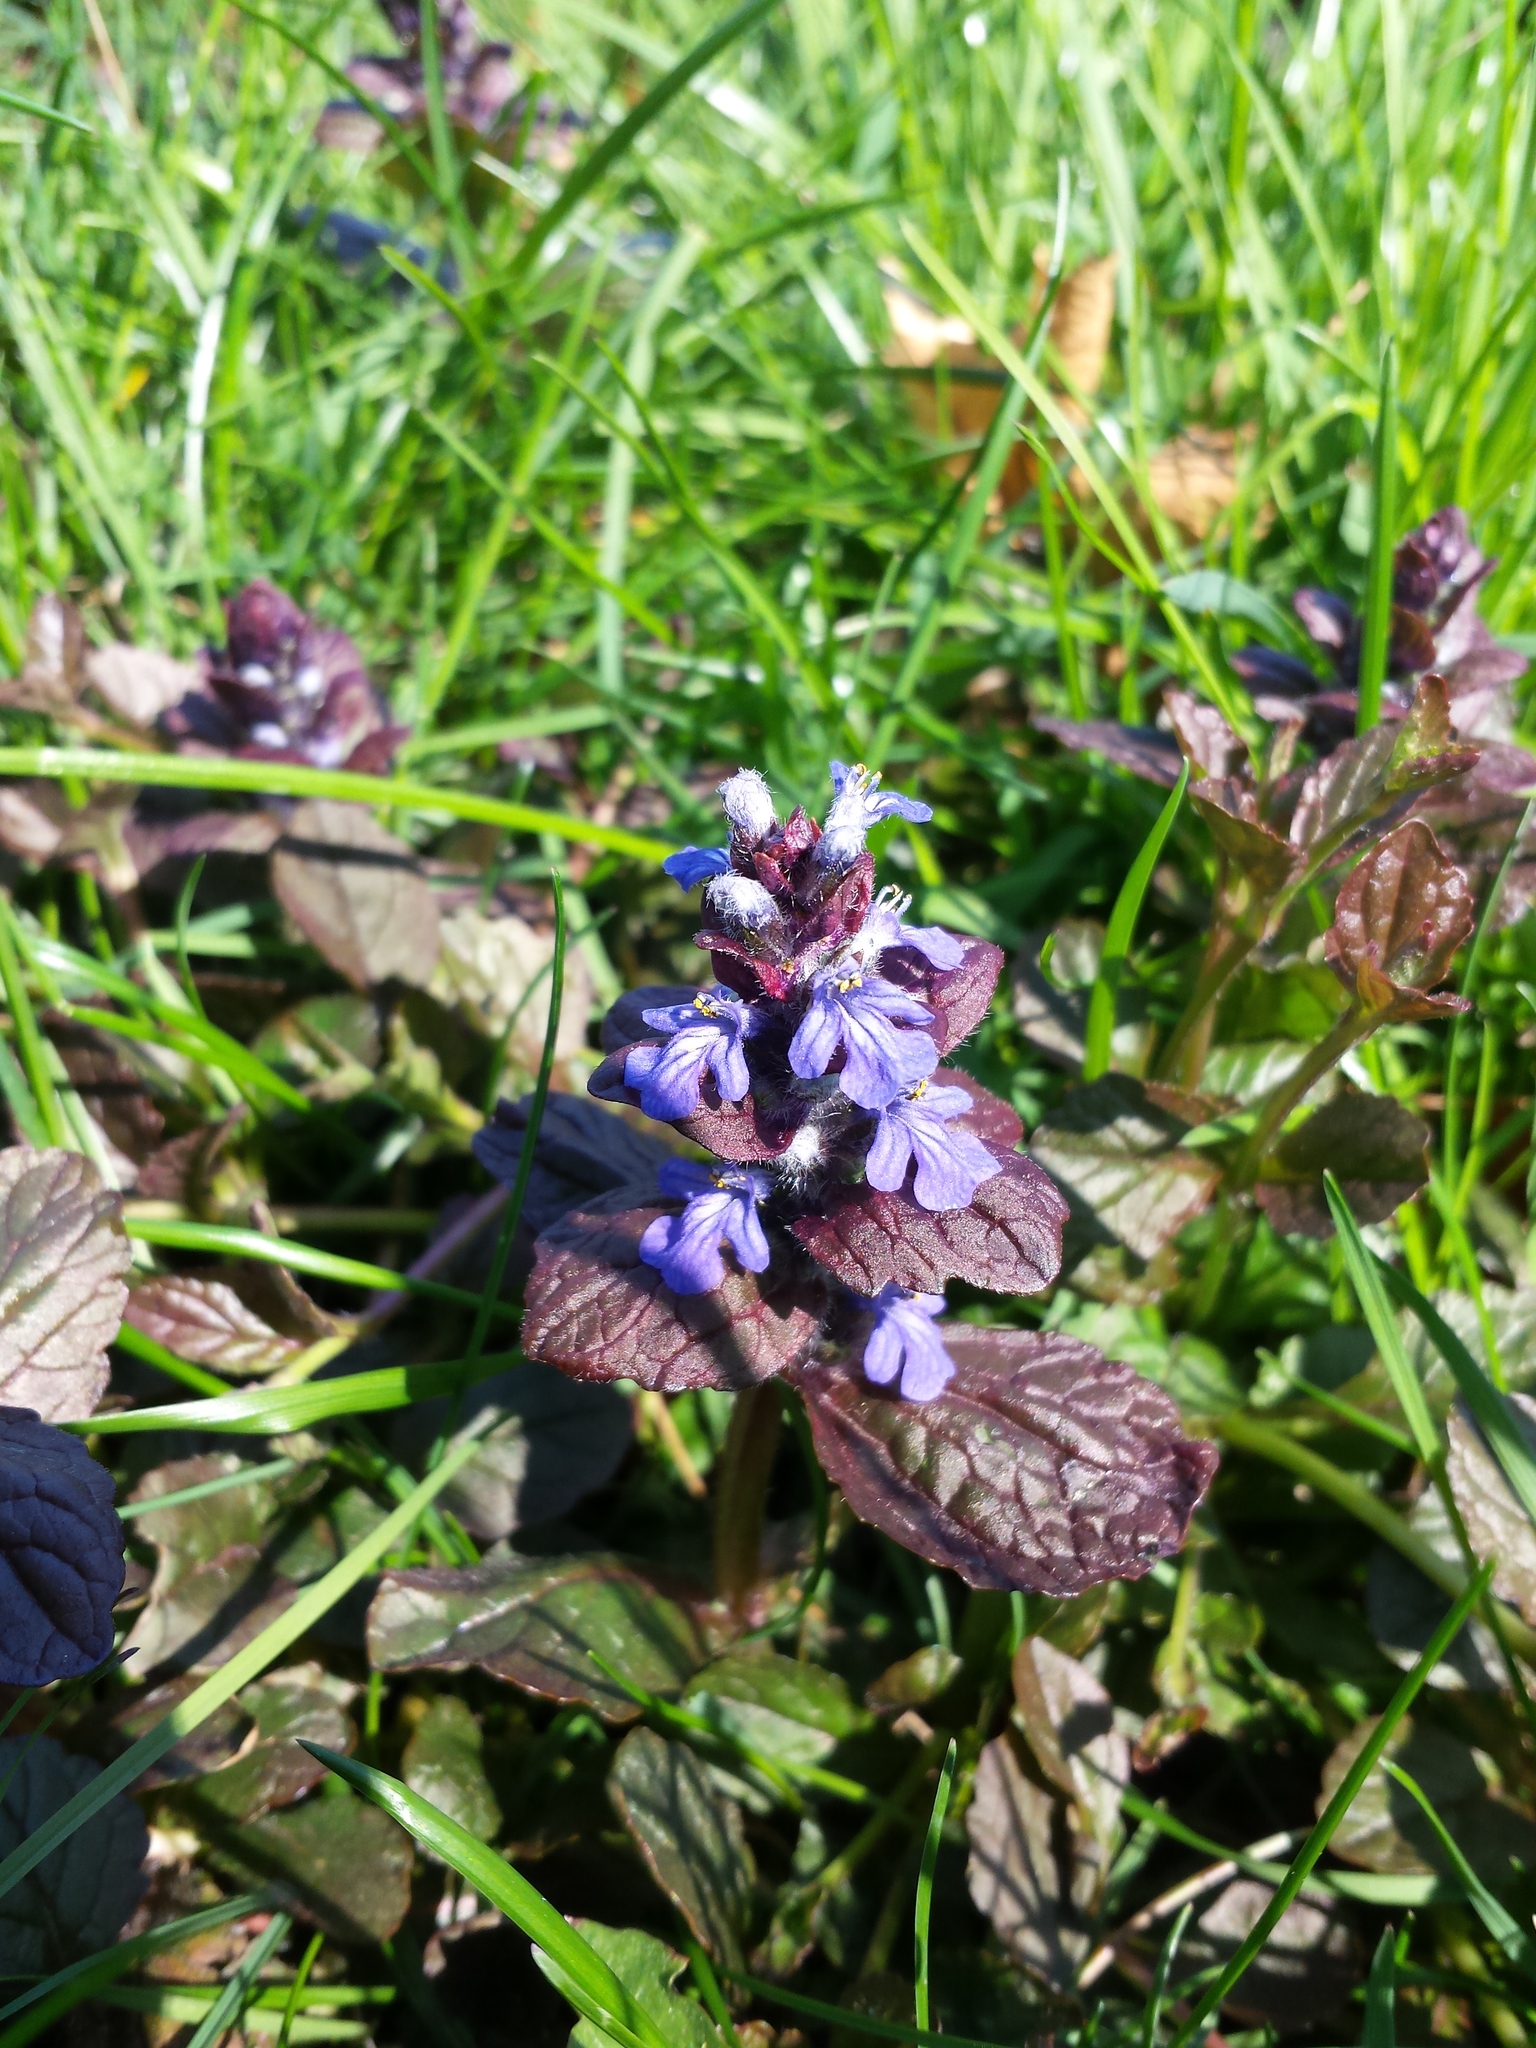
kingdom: Plantae
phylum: Tracheophyta
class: Magnoliopsida
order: Lamiales
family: Lamiaceae
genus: Ajuga
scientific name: Ajuga reptans
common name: Bugle
